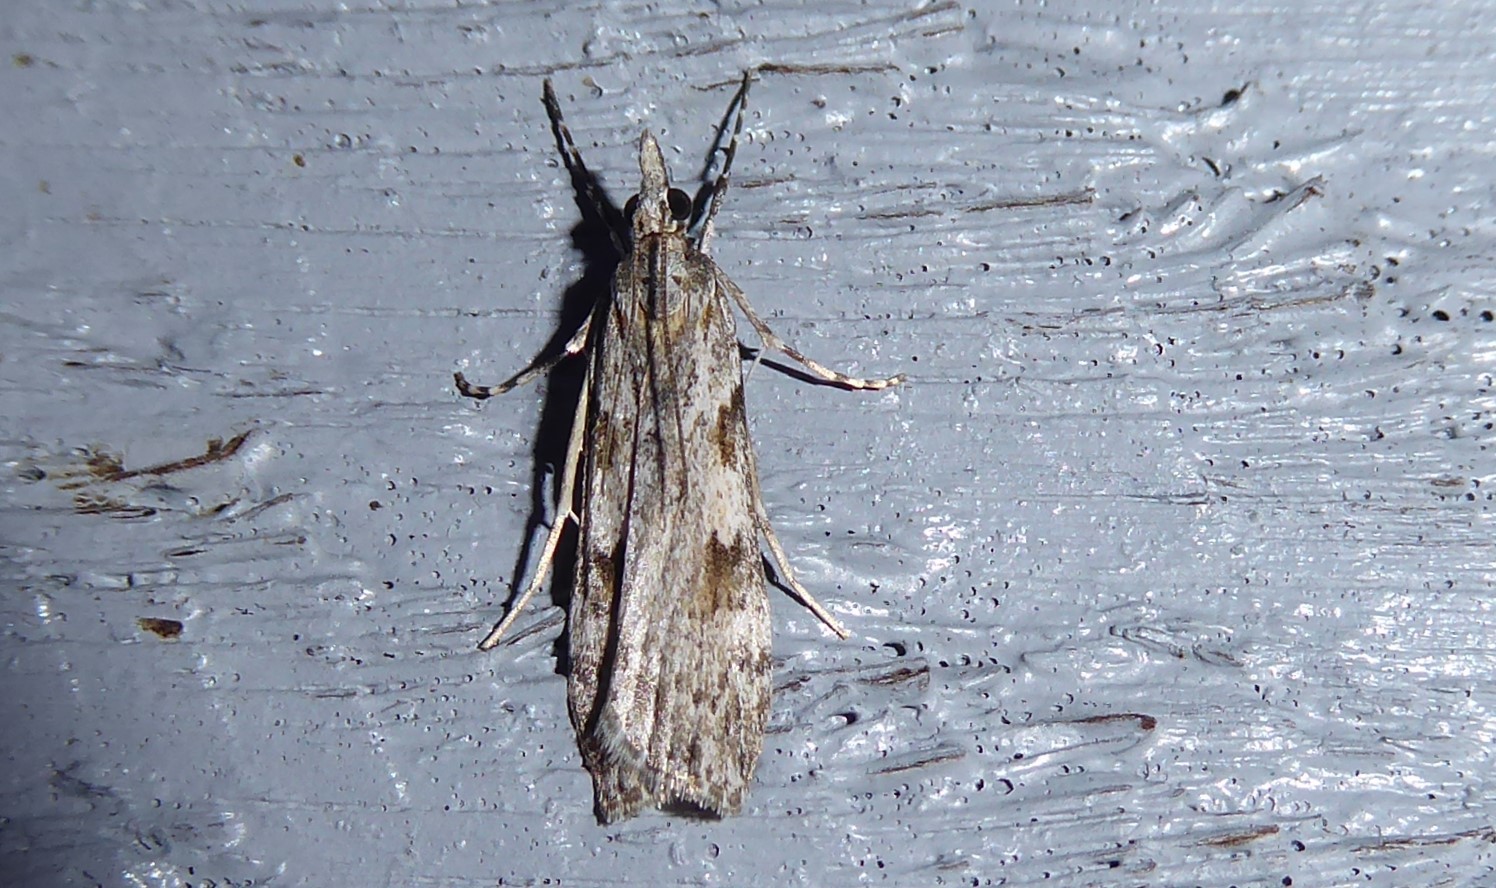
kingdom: Animalia
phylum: Arthropoda
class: Insecta
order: Lepidoptera
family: Crambidae
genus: Scoparia
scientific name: Scoparia halopis
